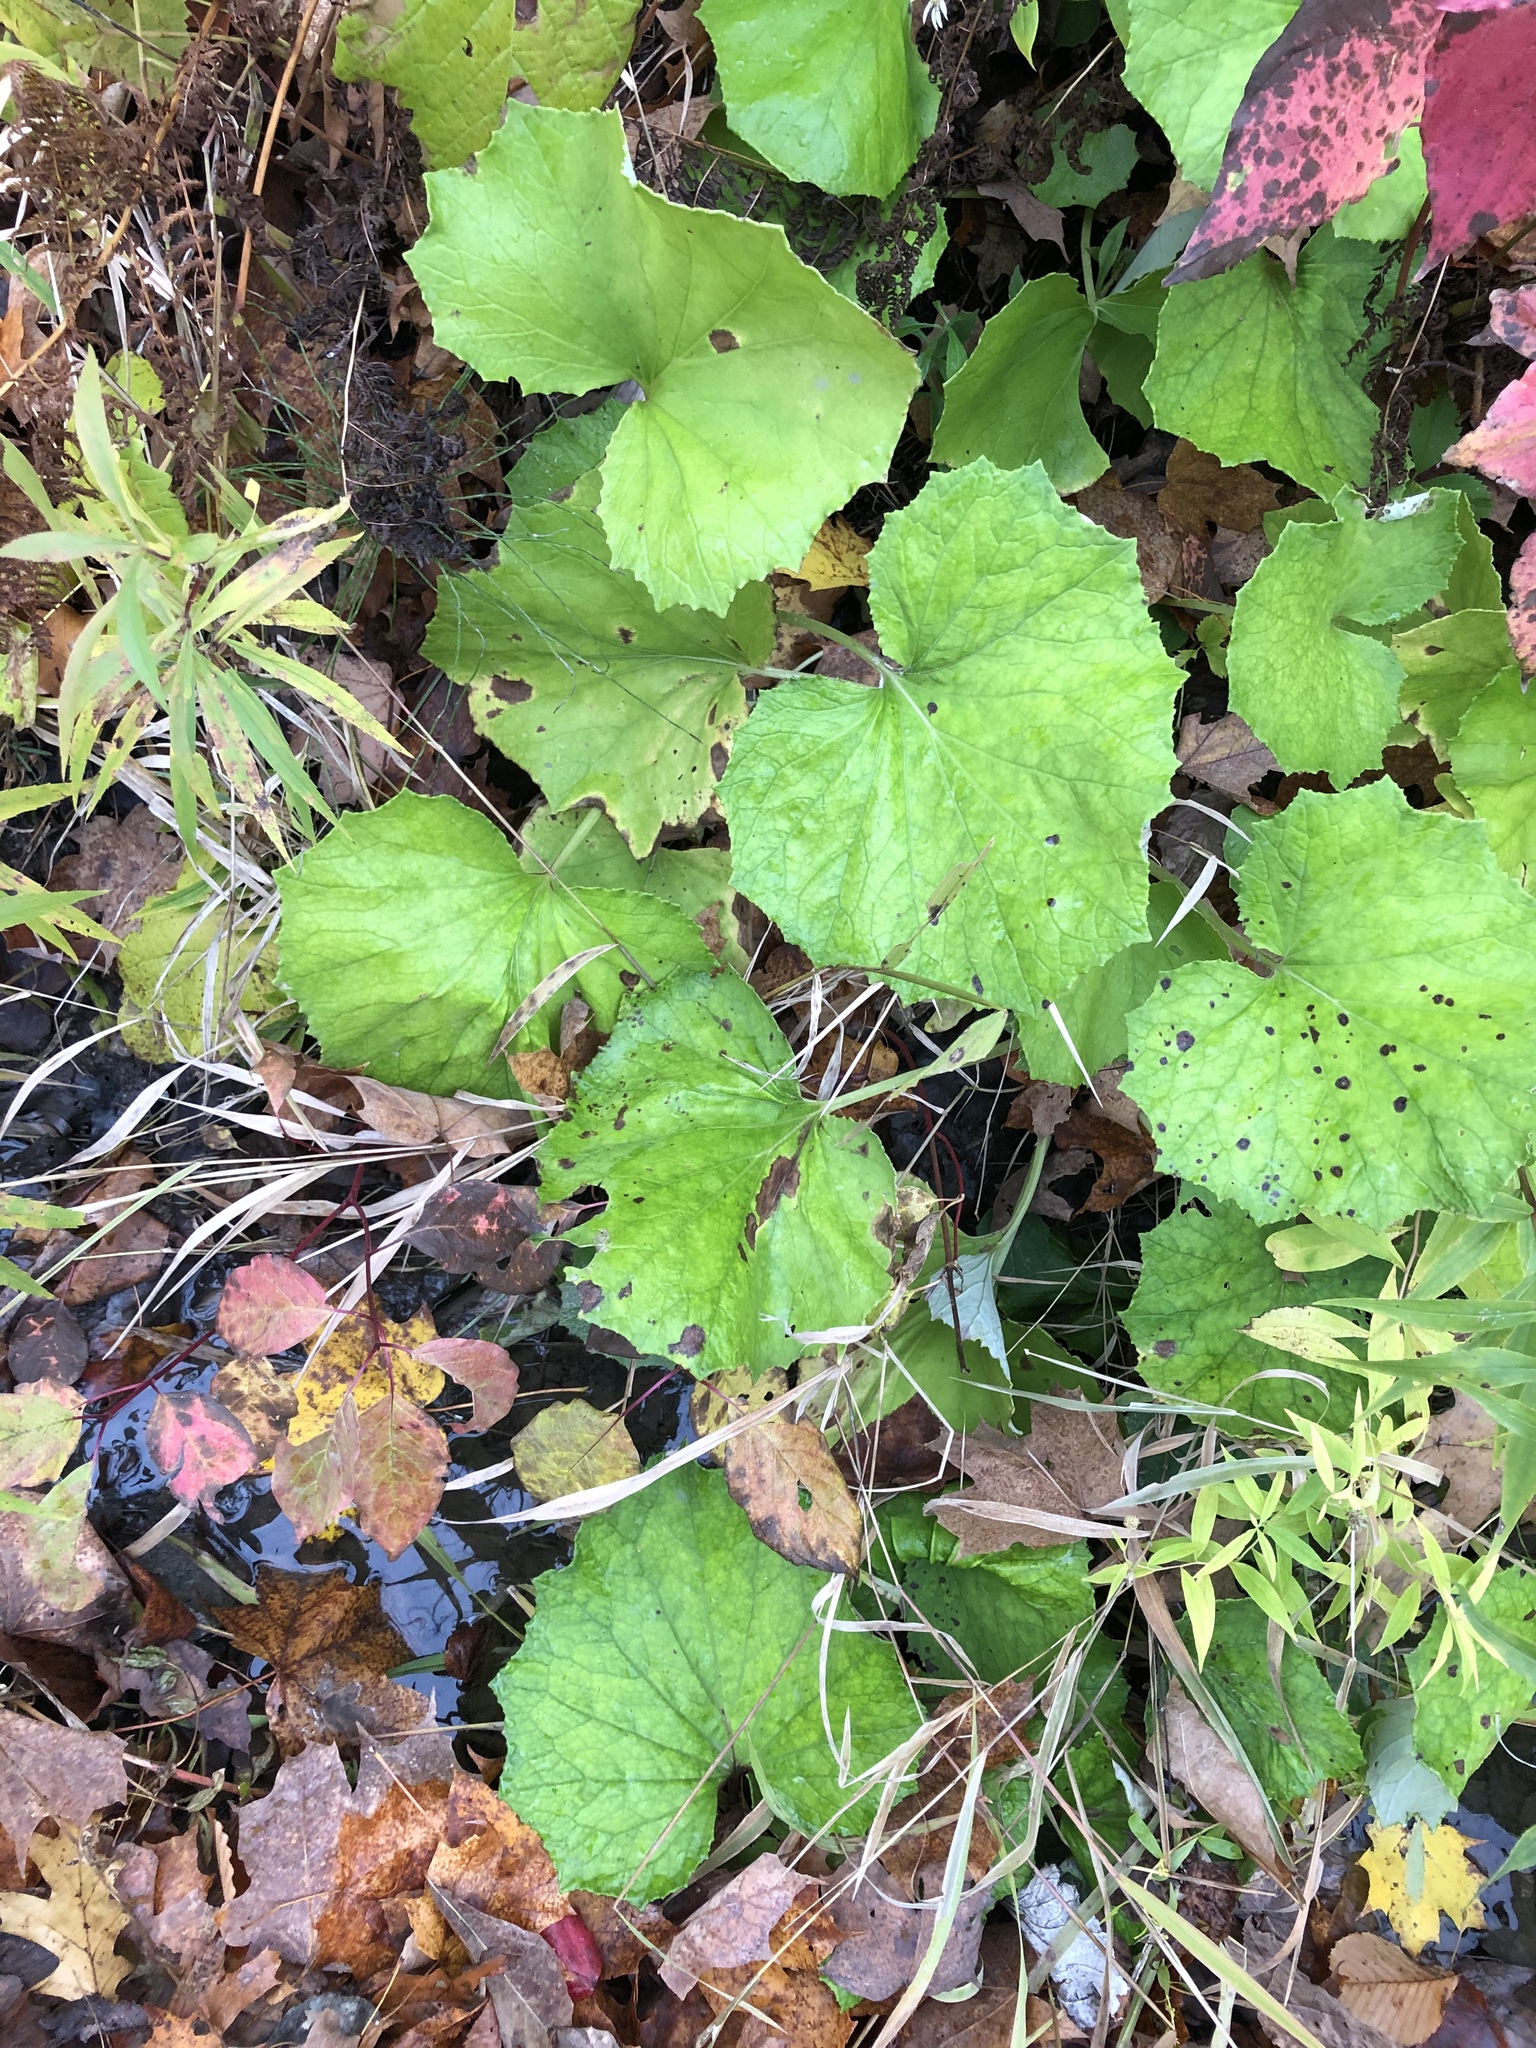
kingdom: Plantae
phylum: Tracheophyta
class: Magnoliopsida
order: Asterales
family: Asteraceae
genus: Tussilago
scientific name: Tussilago farfara
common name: Coltsfoot
